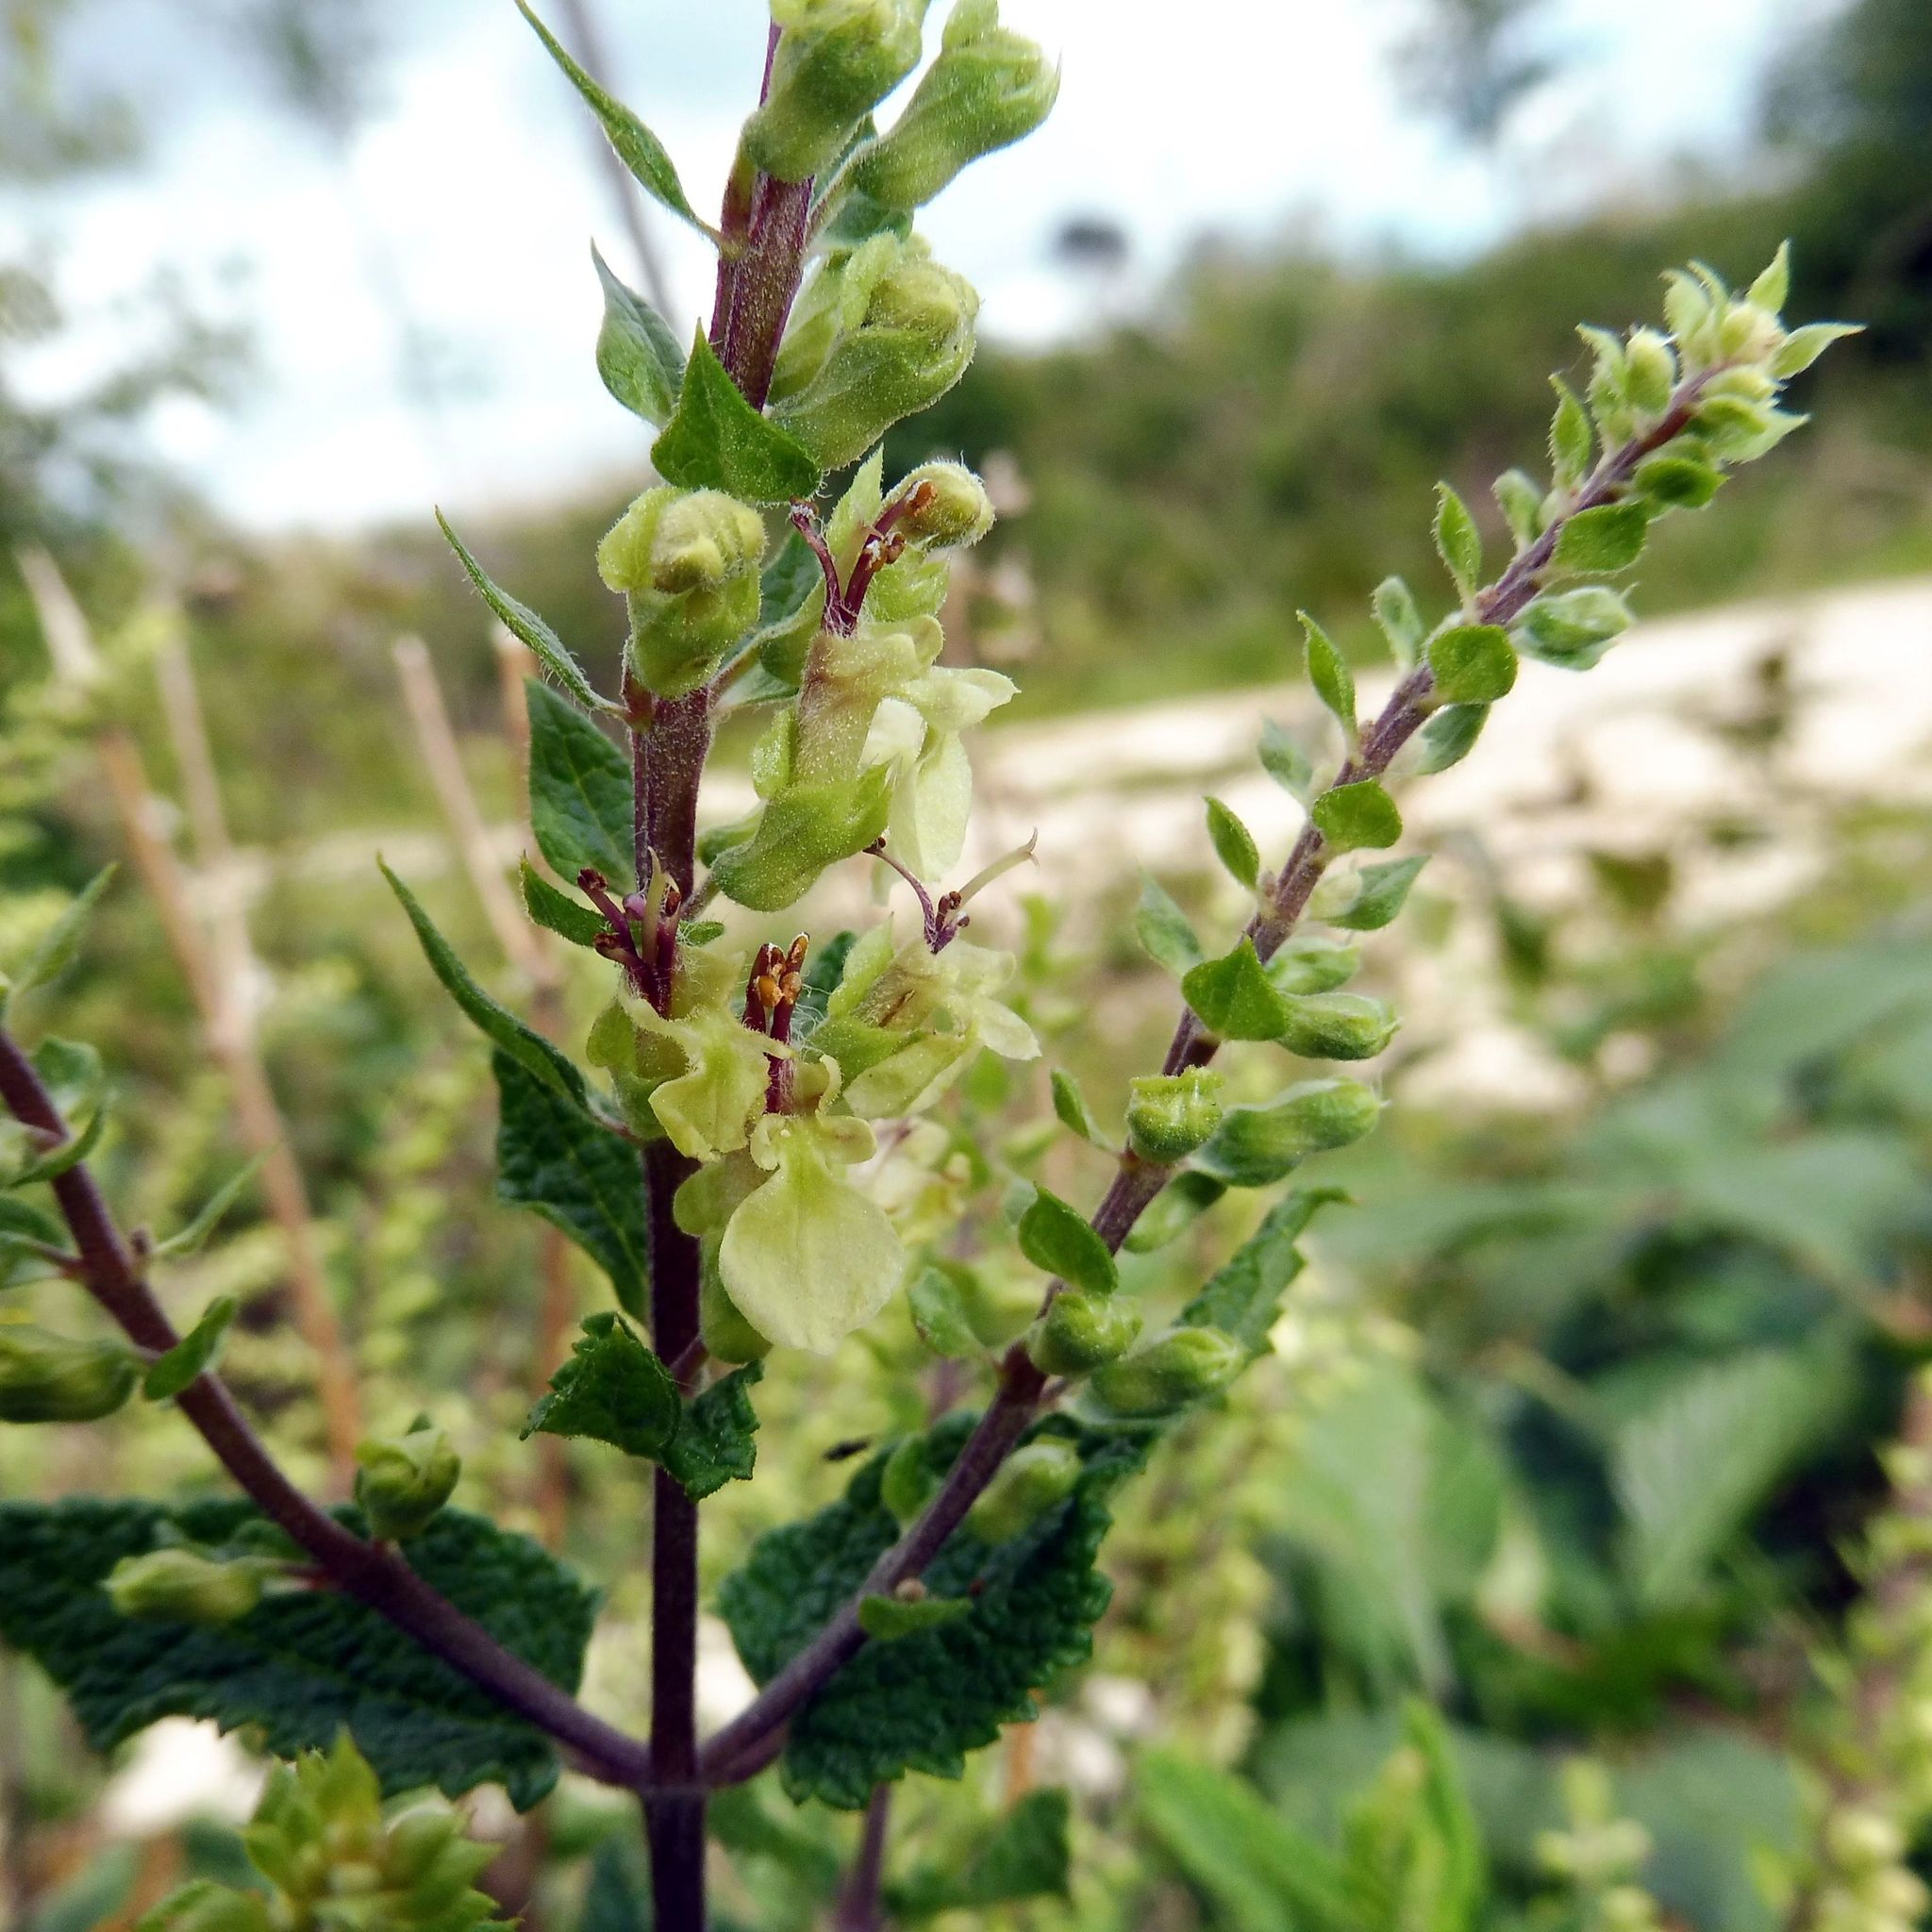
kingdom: Plantae
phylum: Tracheophyta
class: Magnoliopsida
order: Lamiales
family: Lamiaceae
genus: Teucrium
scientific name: Teucrium scorodonia
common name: Woodland germander
